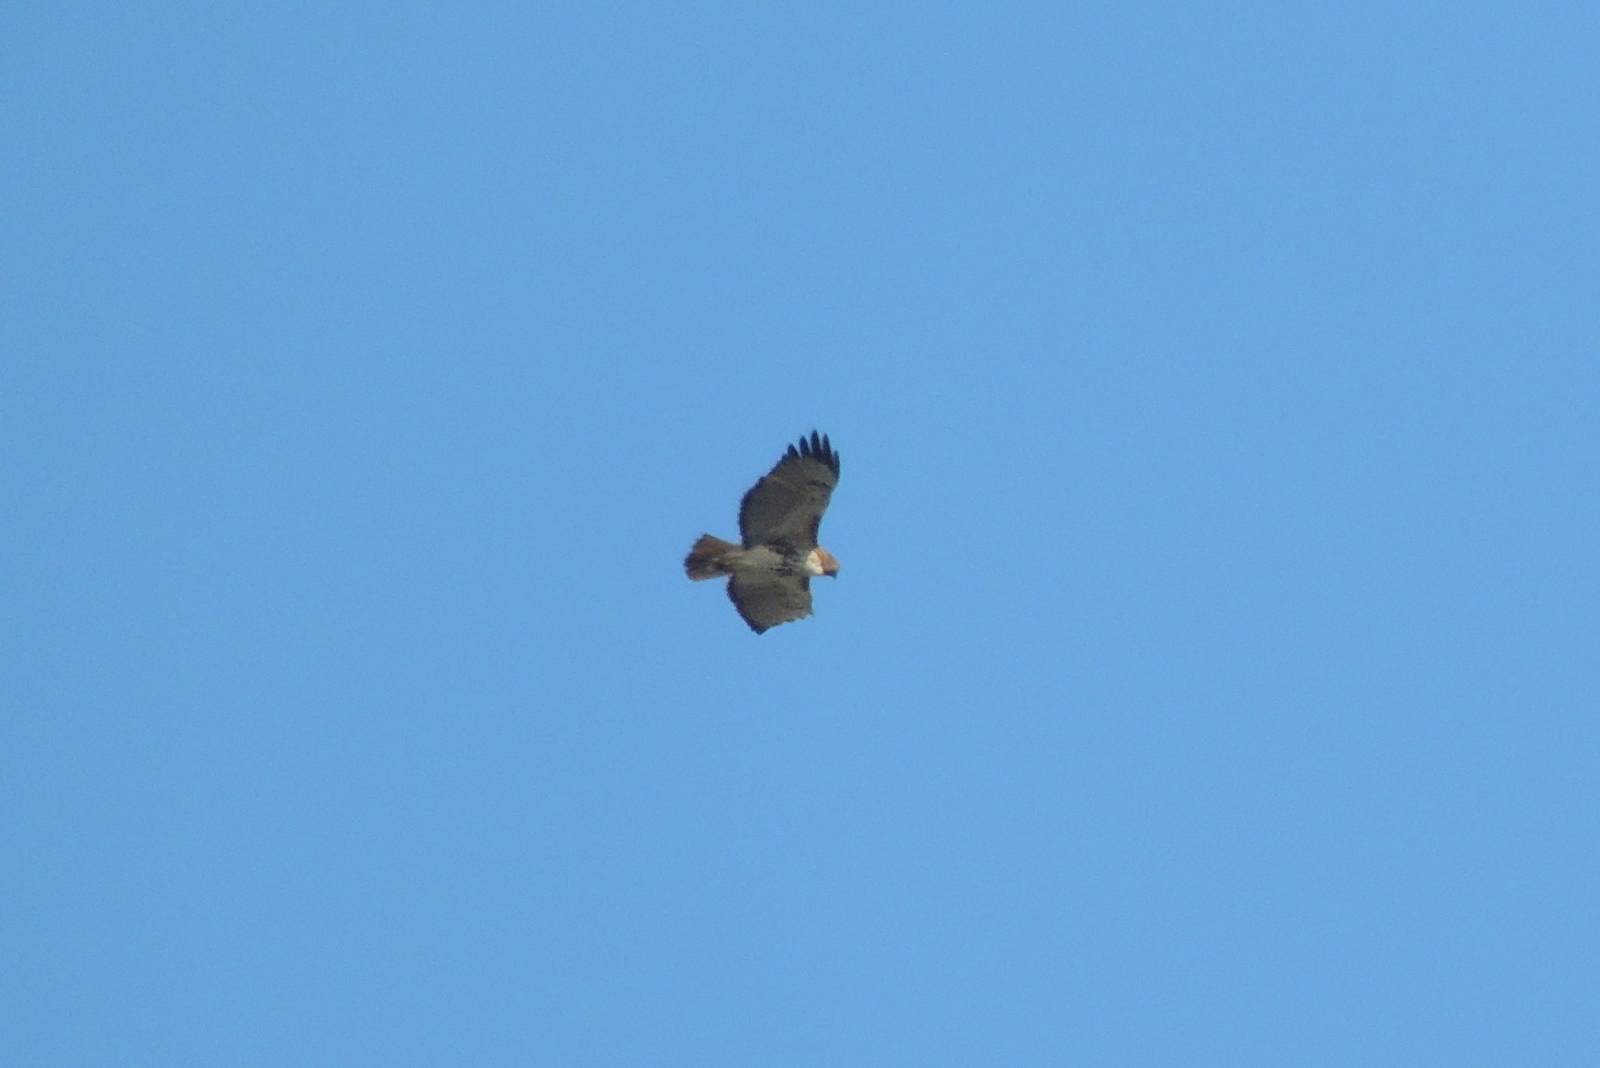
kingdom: Animalia
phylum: Chordata
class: Aves
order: Accipitriformes
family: Accipitridae
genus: Buteo
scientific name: Buteo jamaicensis
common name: Red-tailed hawk
